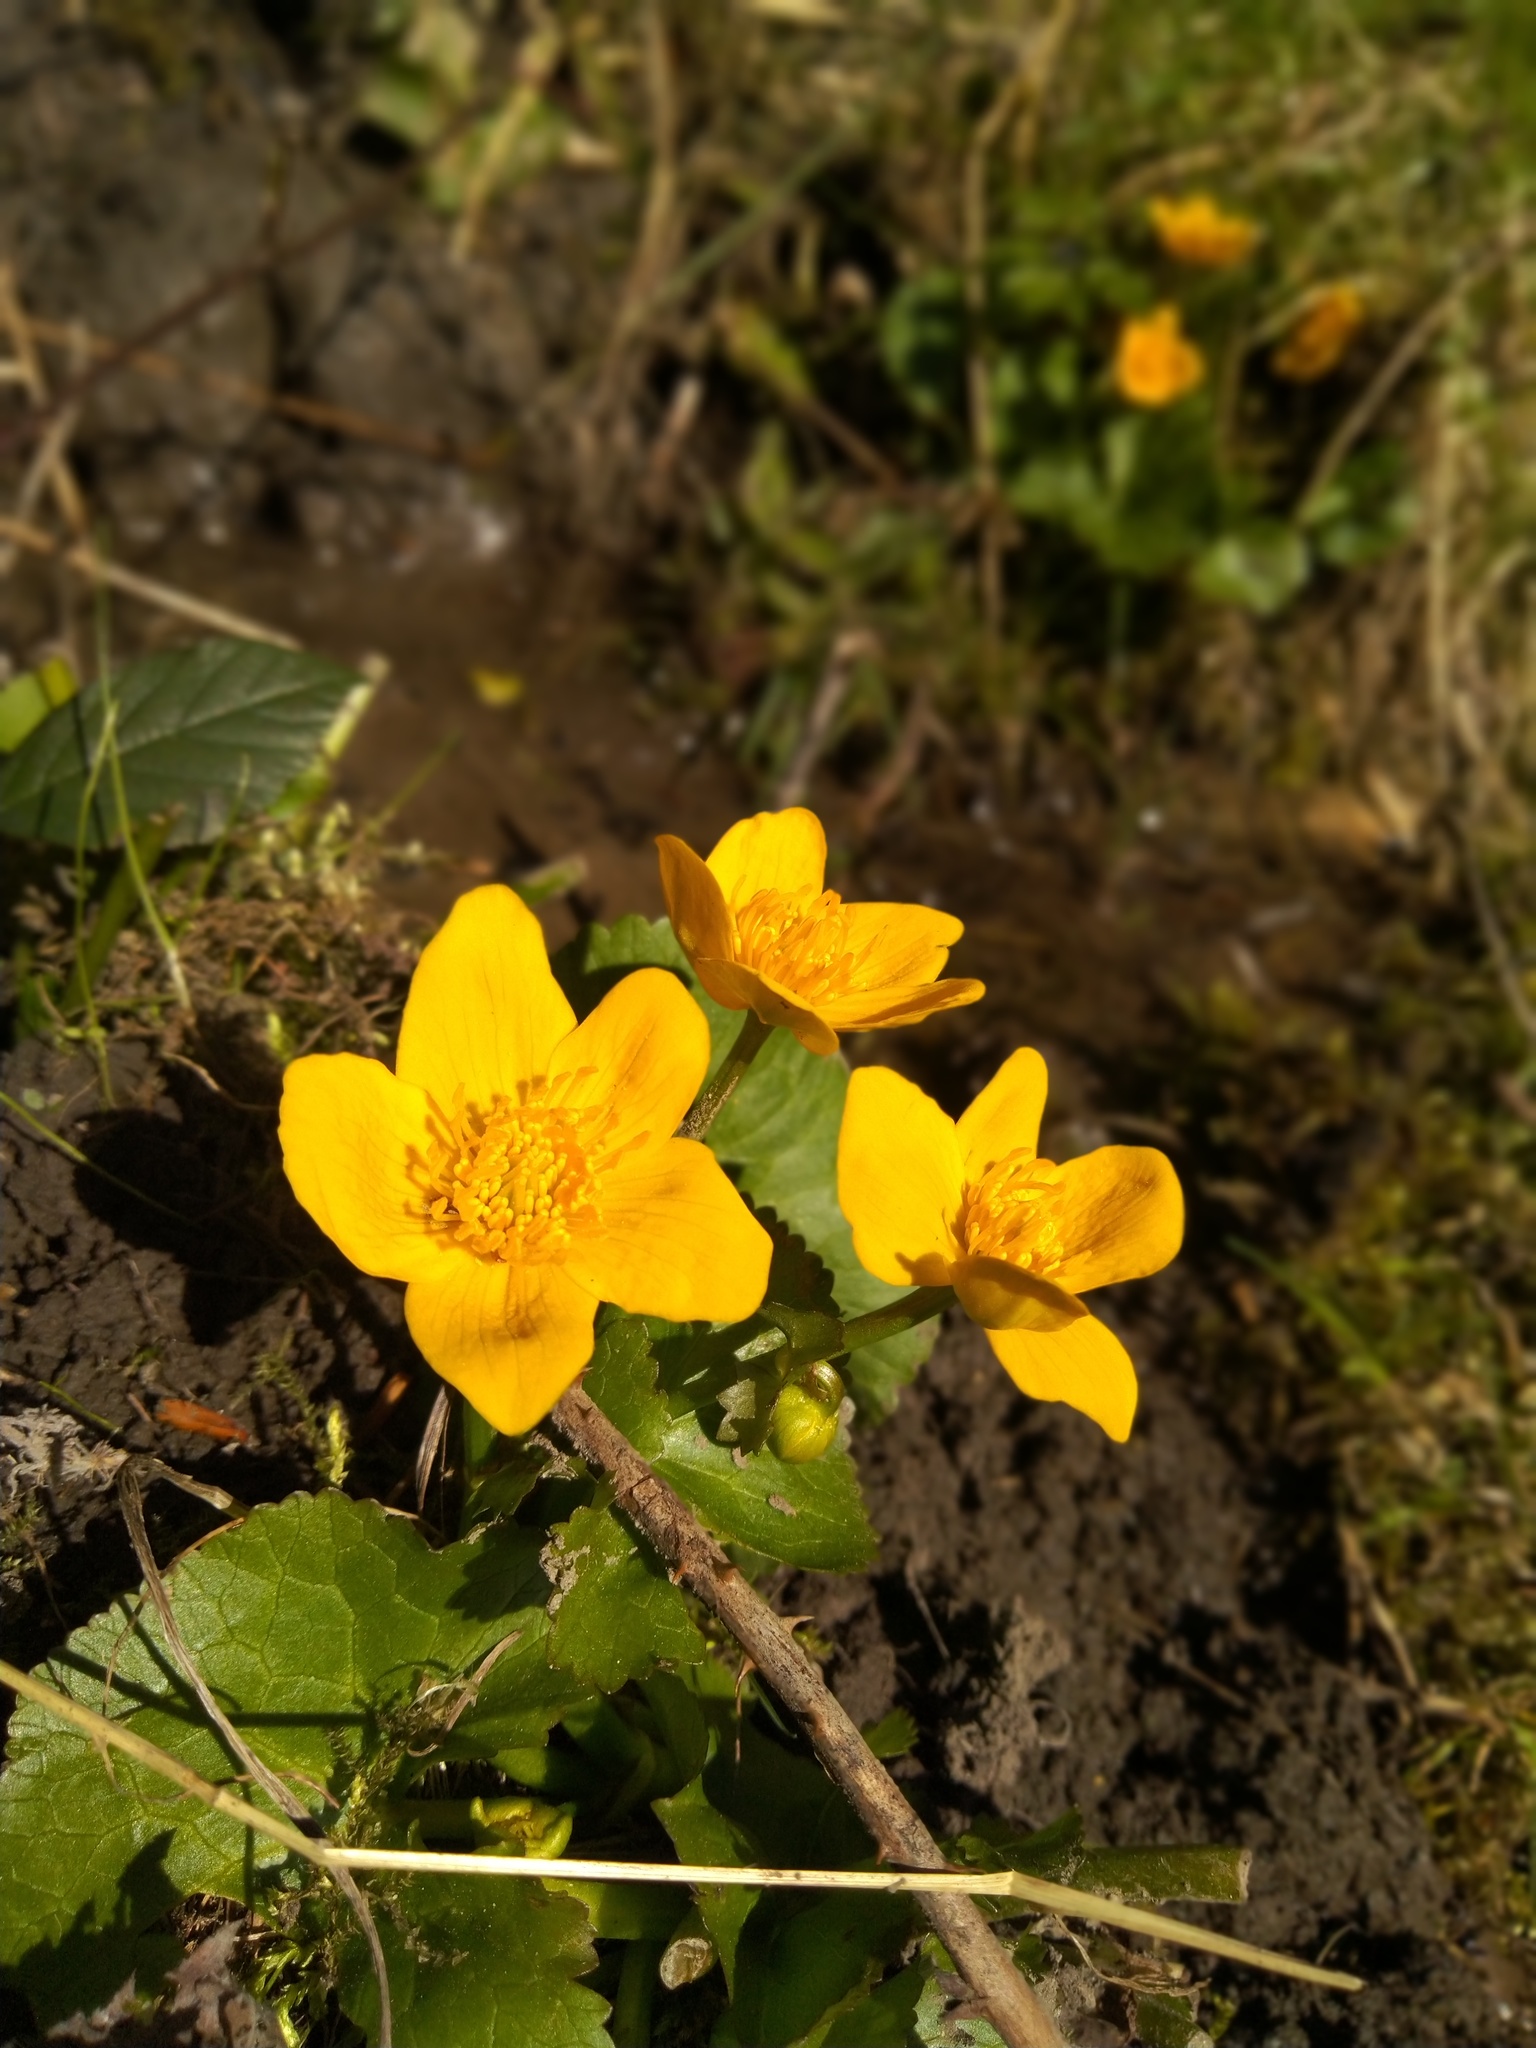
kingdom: Plantae
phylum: Tracheophyta
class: Magnoliopsida
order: Ranunculales
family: Ranunculaceae
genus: Caltha
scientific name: Caltha palustris
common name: Marsh marigold
